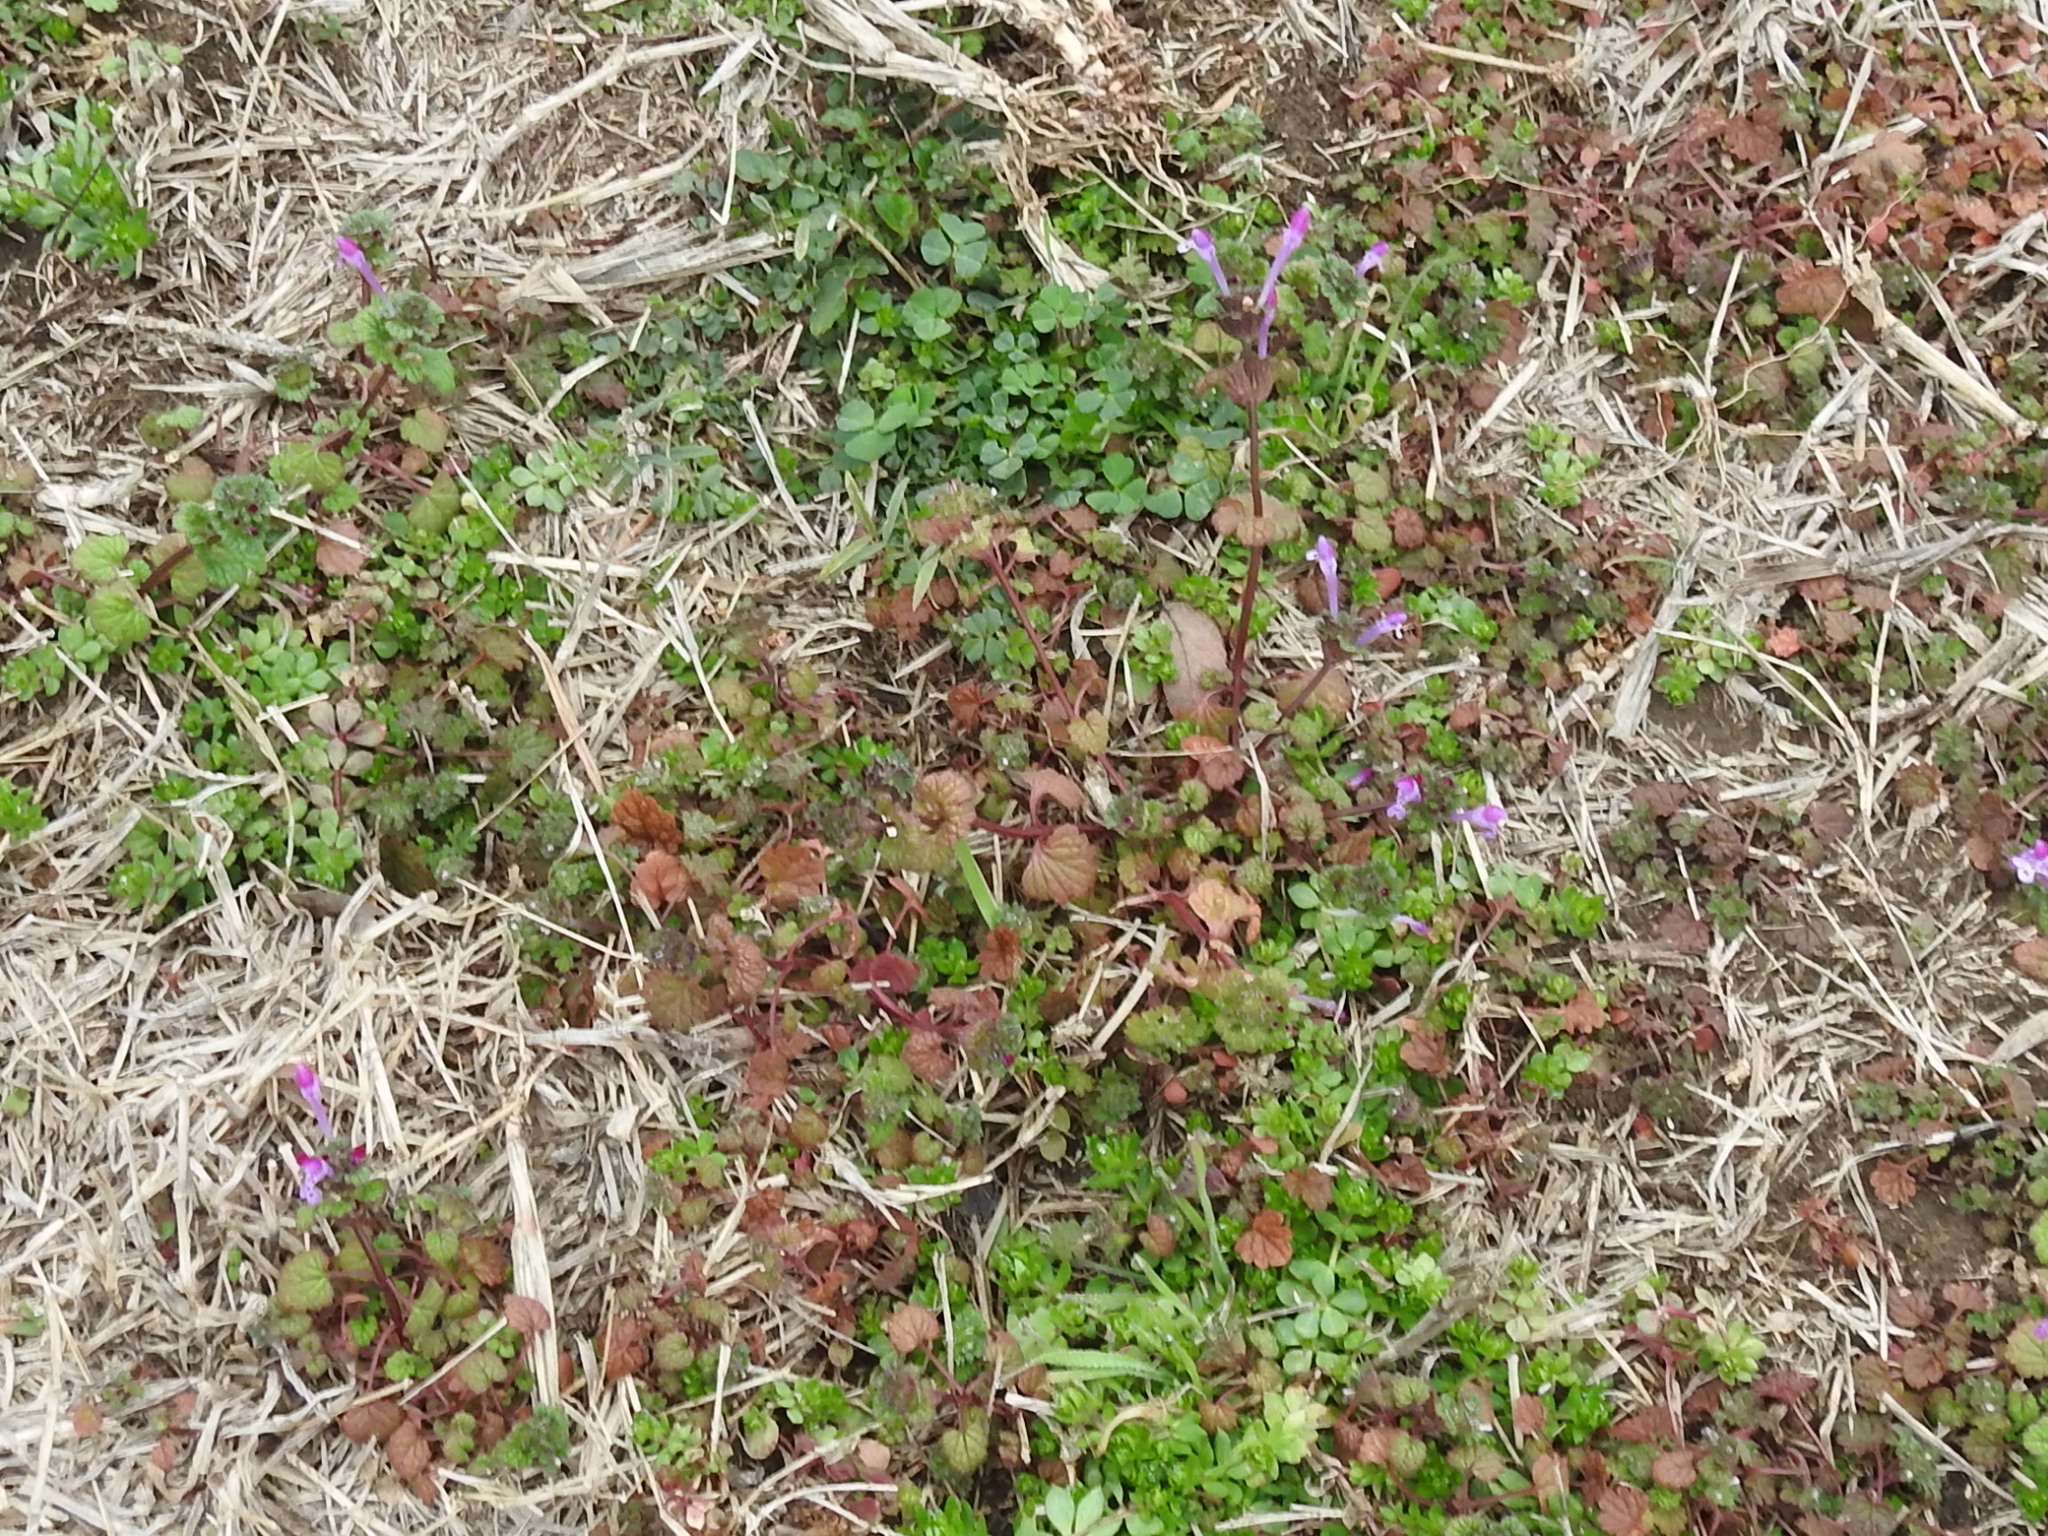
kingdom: Plantae
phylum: Tracheophyta
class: Magnoliopsida
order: Lamiales
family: Lamiaceae
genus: Lamium
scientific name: Lamium amplexicaule
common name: Henbit dead-nettle
